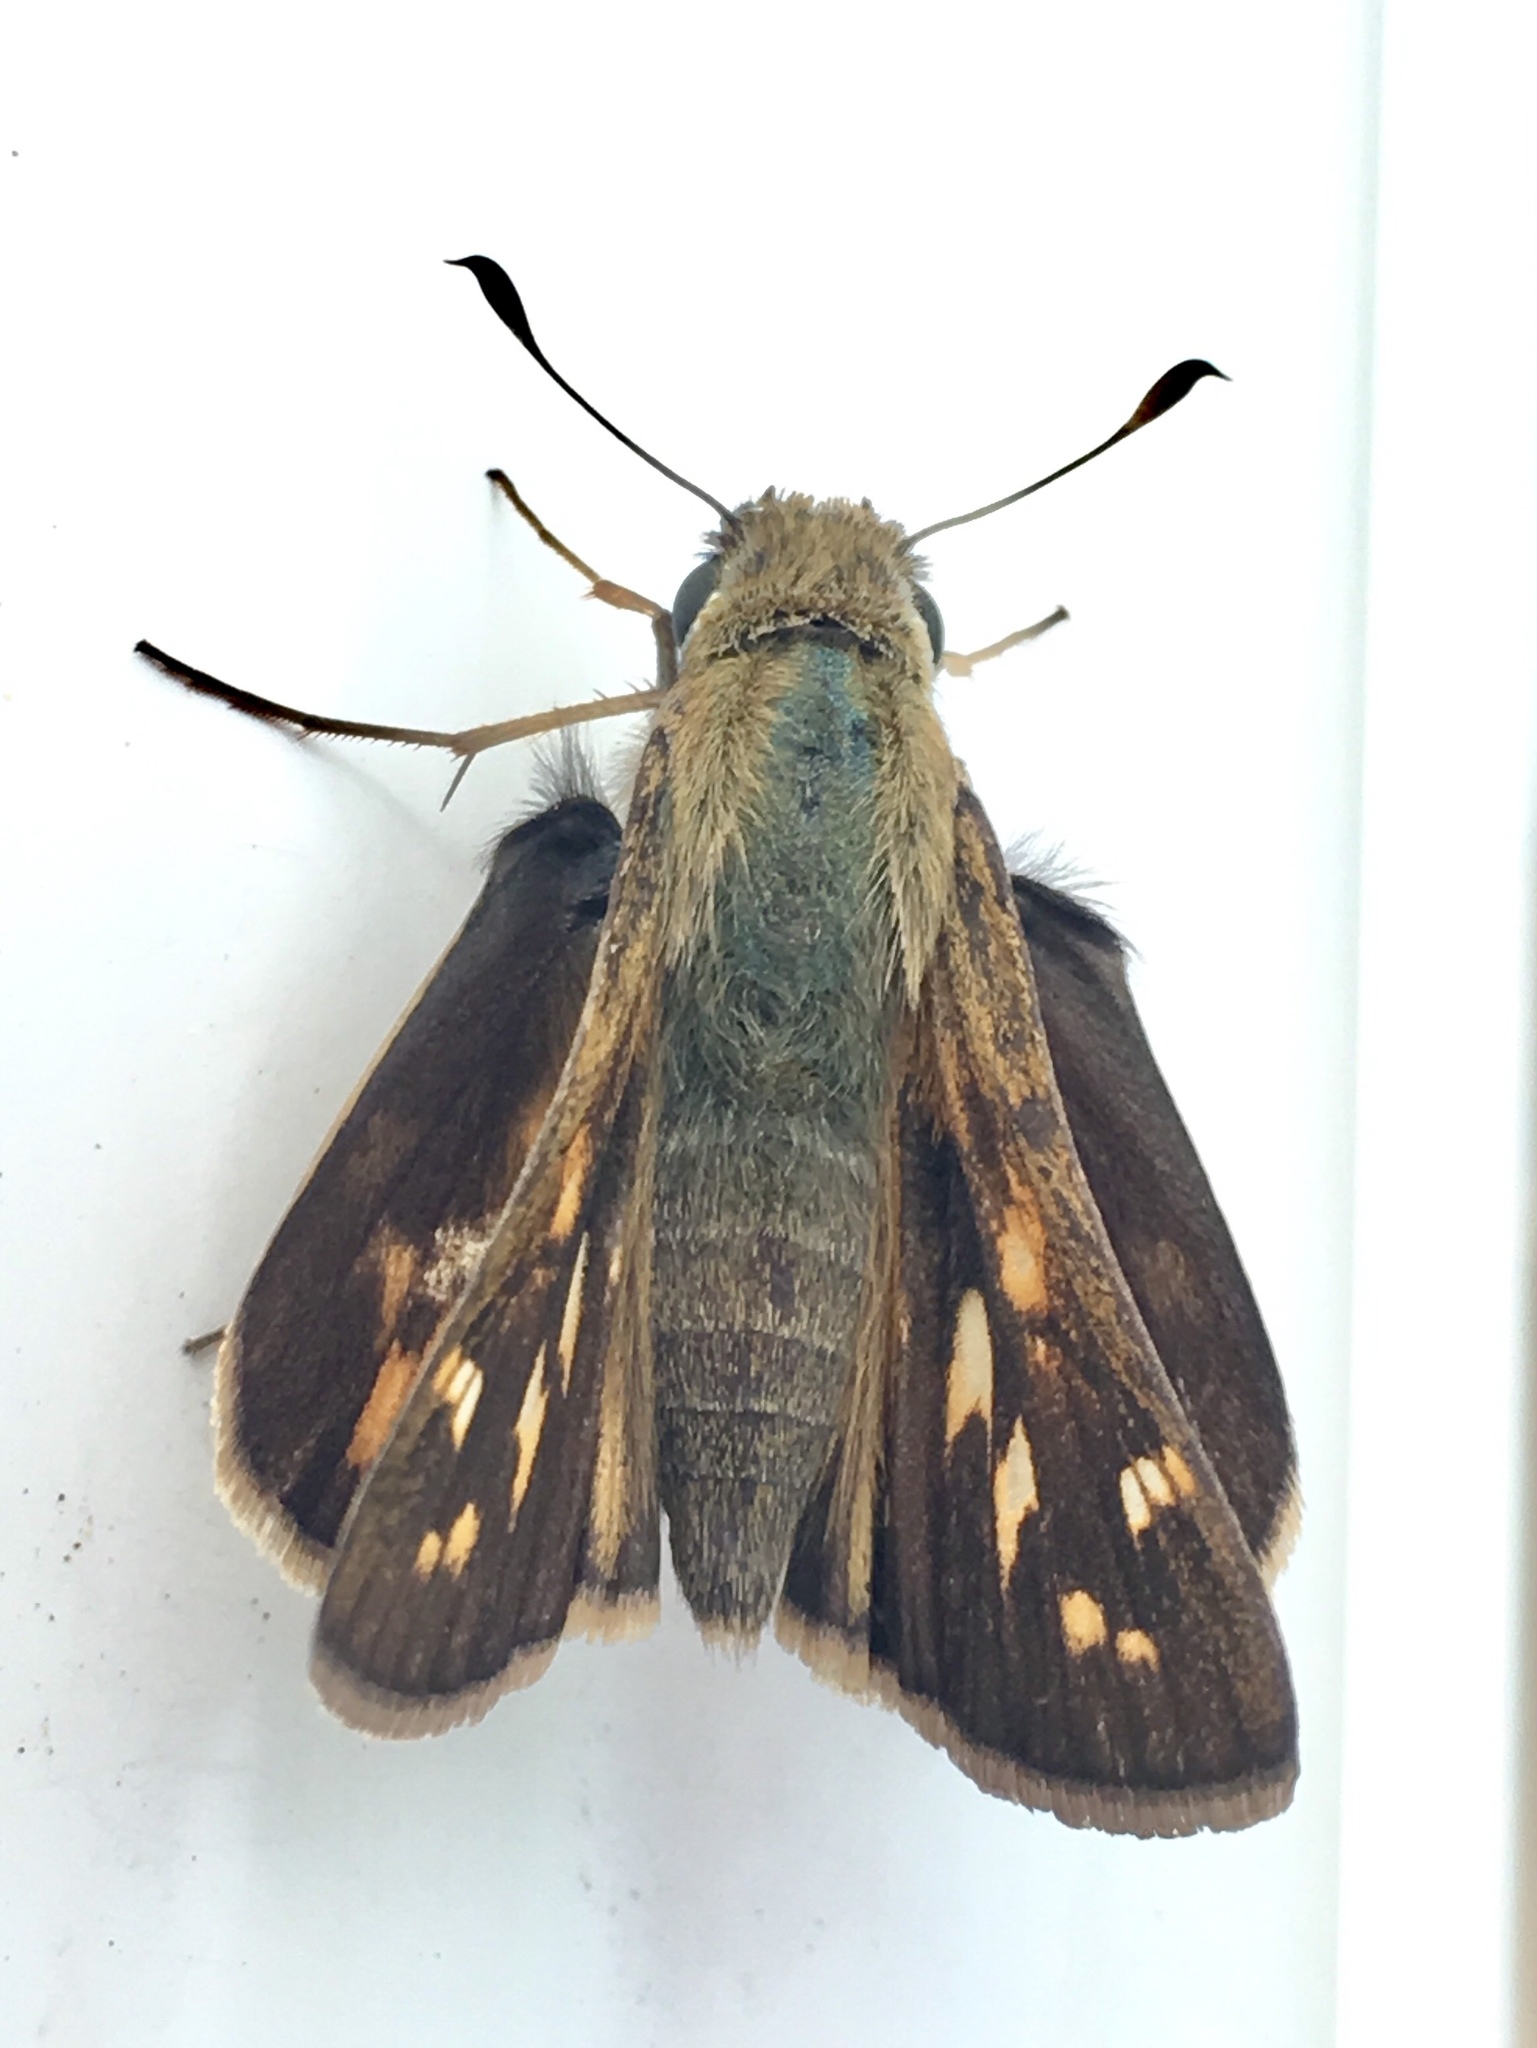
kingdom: Animalia
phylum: Arthropoda
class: Insecta
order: Lepidoptera
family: Hesperiidae
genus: Atalopedes
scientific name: Atalopedes
